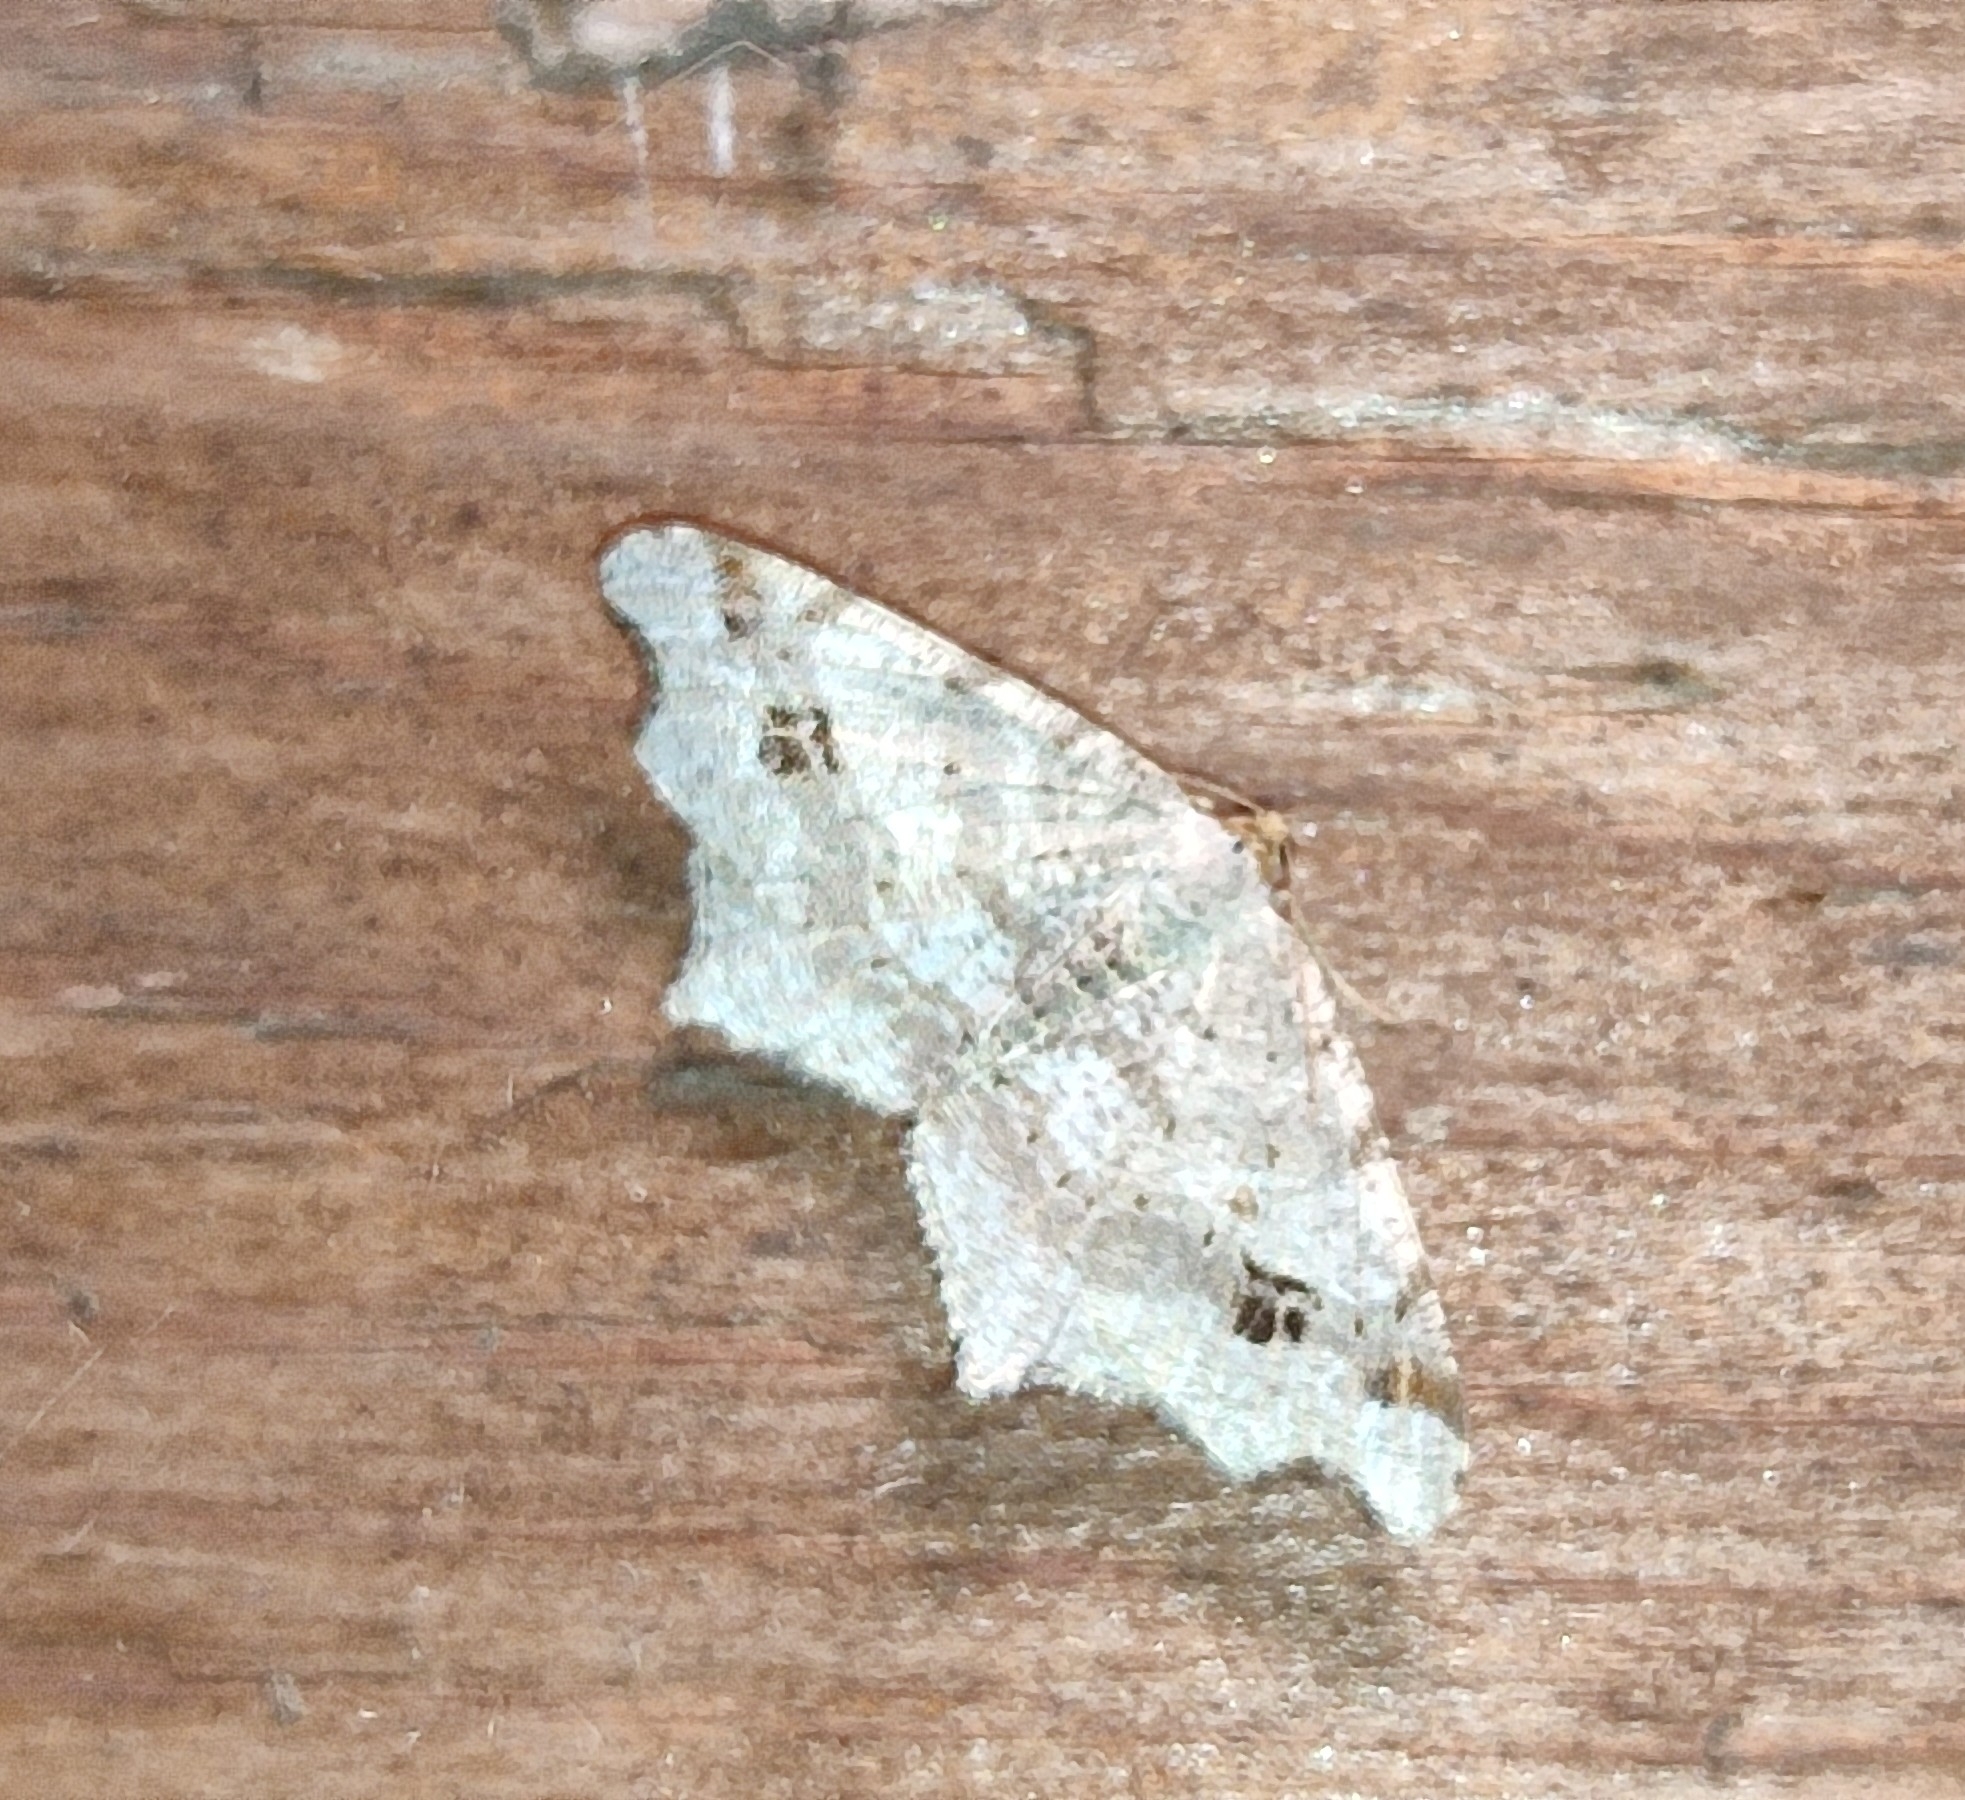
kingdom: Animalia
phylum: Arthropoda
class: Insecta
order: Lepidoptera
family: Geometridae
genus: Macaria
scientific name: Macaria alternata
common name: Sharp-angled peacock
